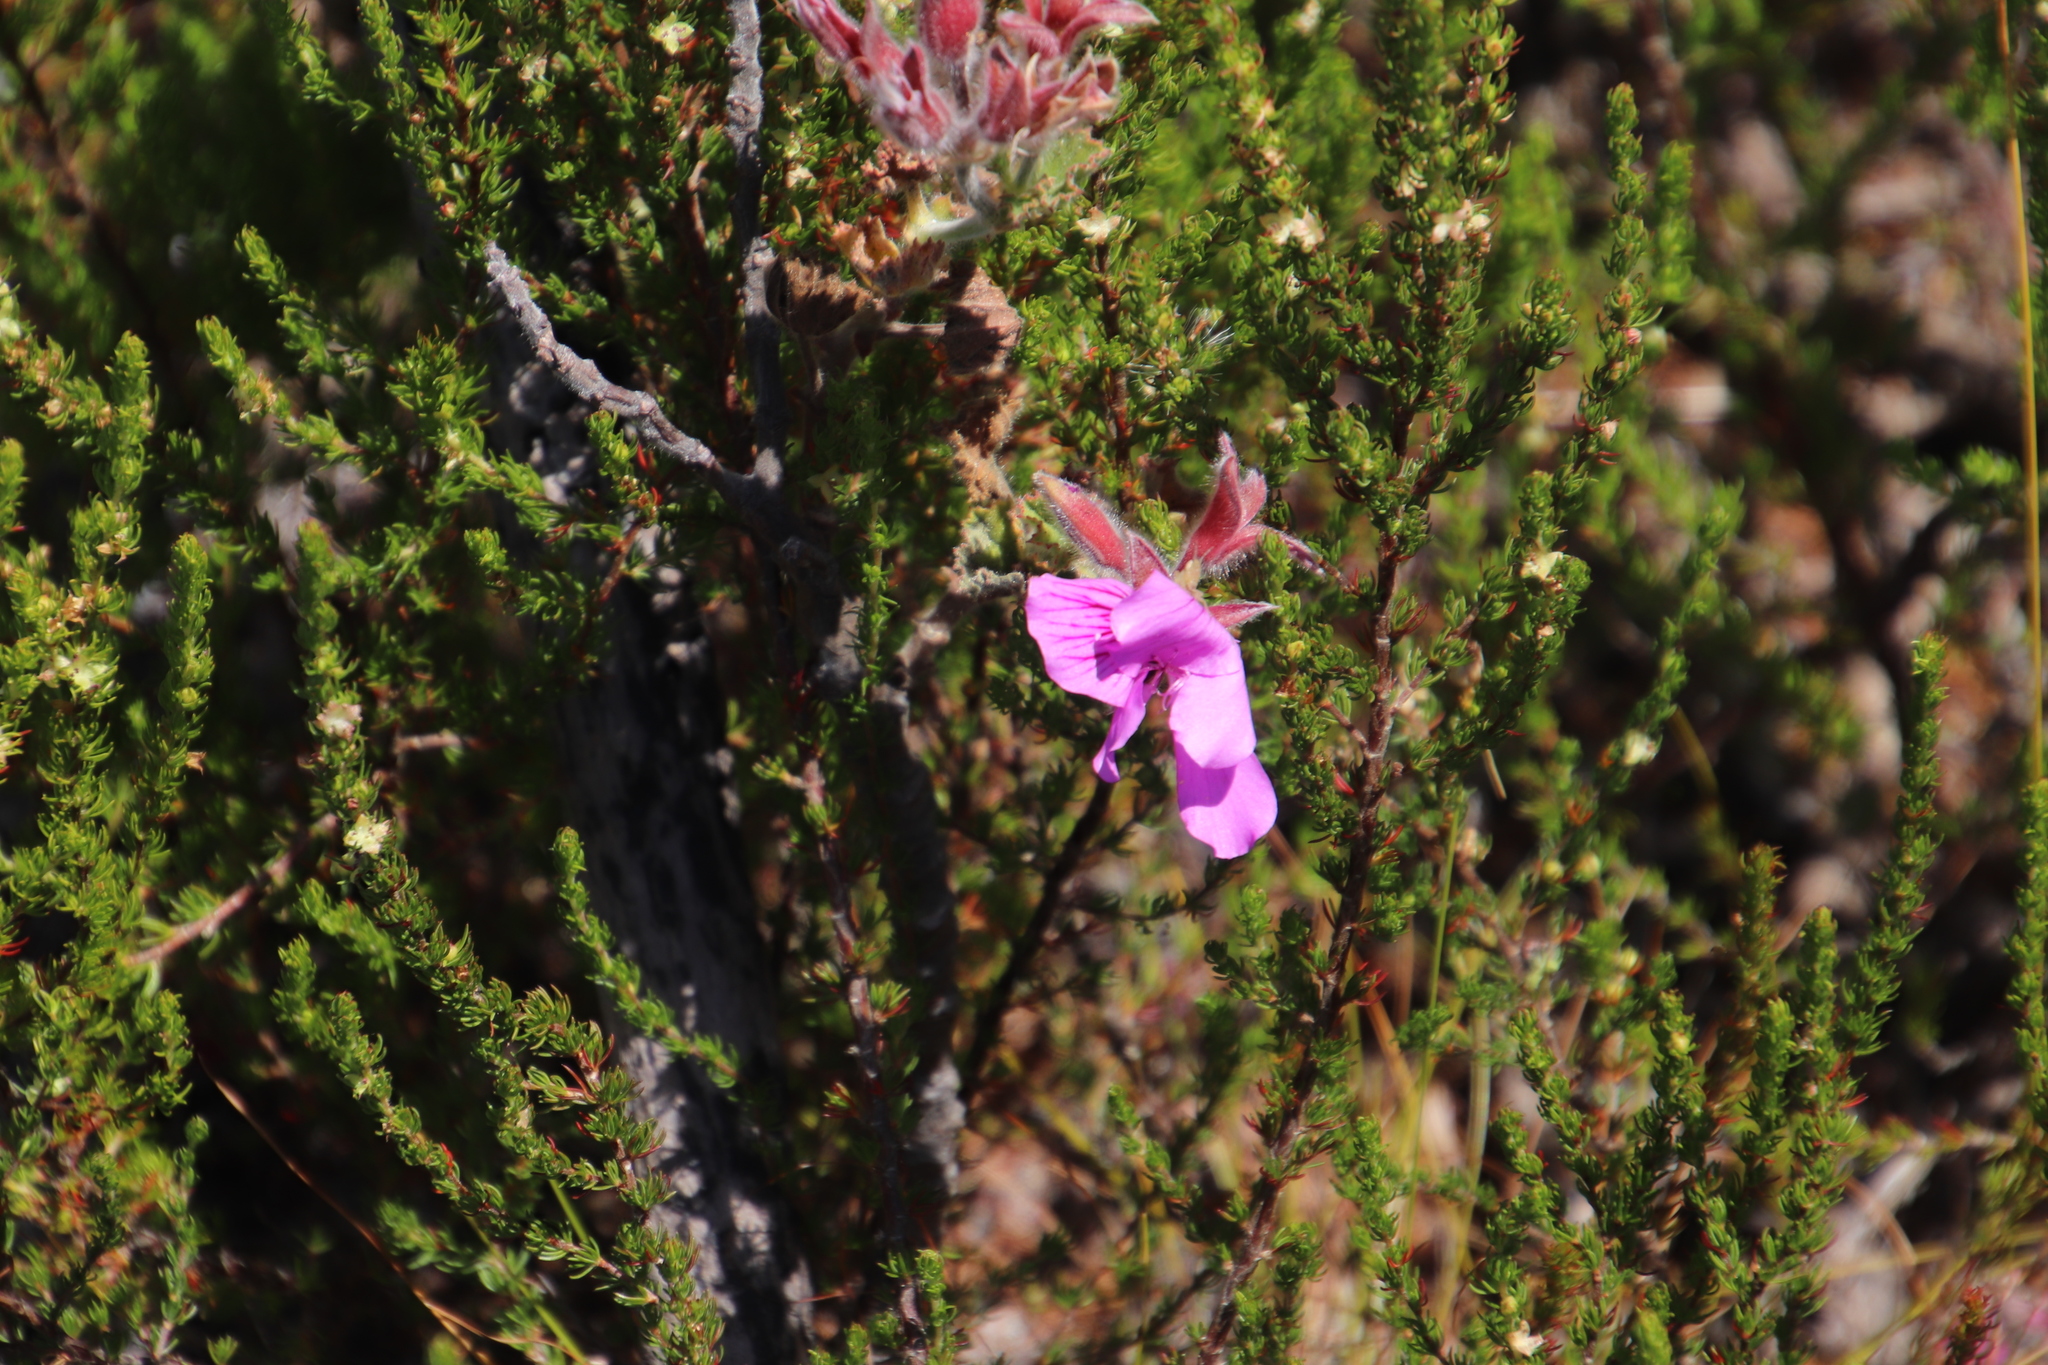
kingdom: Plantae
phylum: Tracheophyta
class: Magnoliopsida
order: Geraniales
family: Geraniaceae
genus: Pelargonium
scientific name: Pelargonium cucullatum
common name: Tree pelargonium
